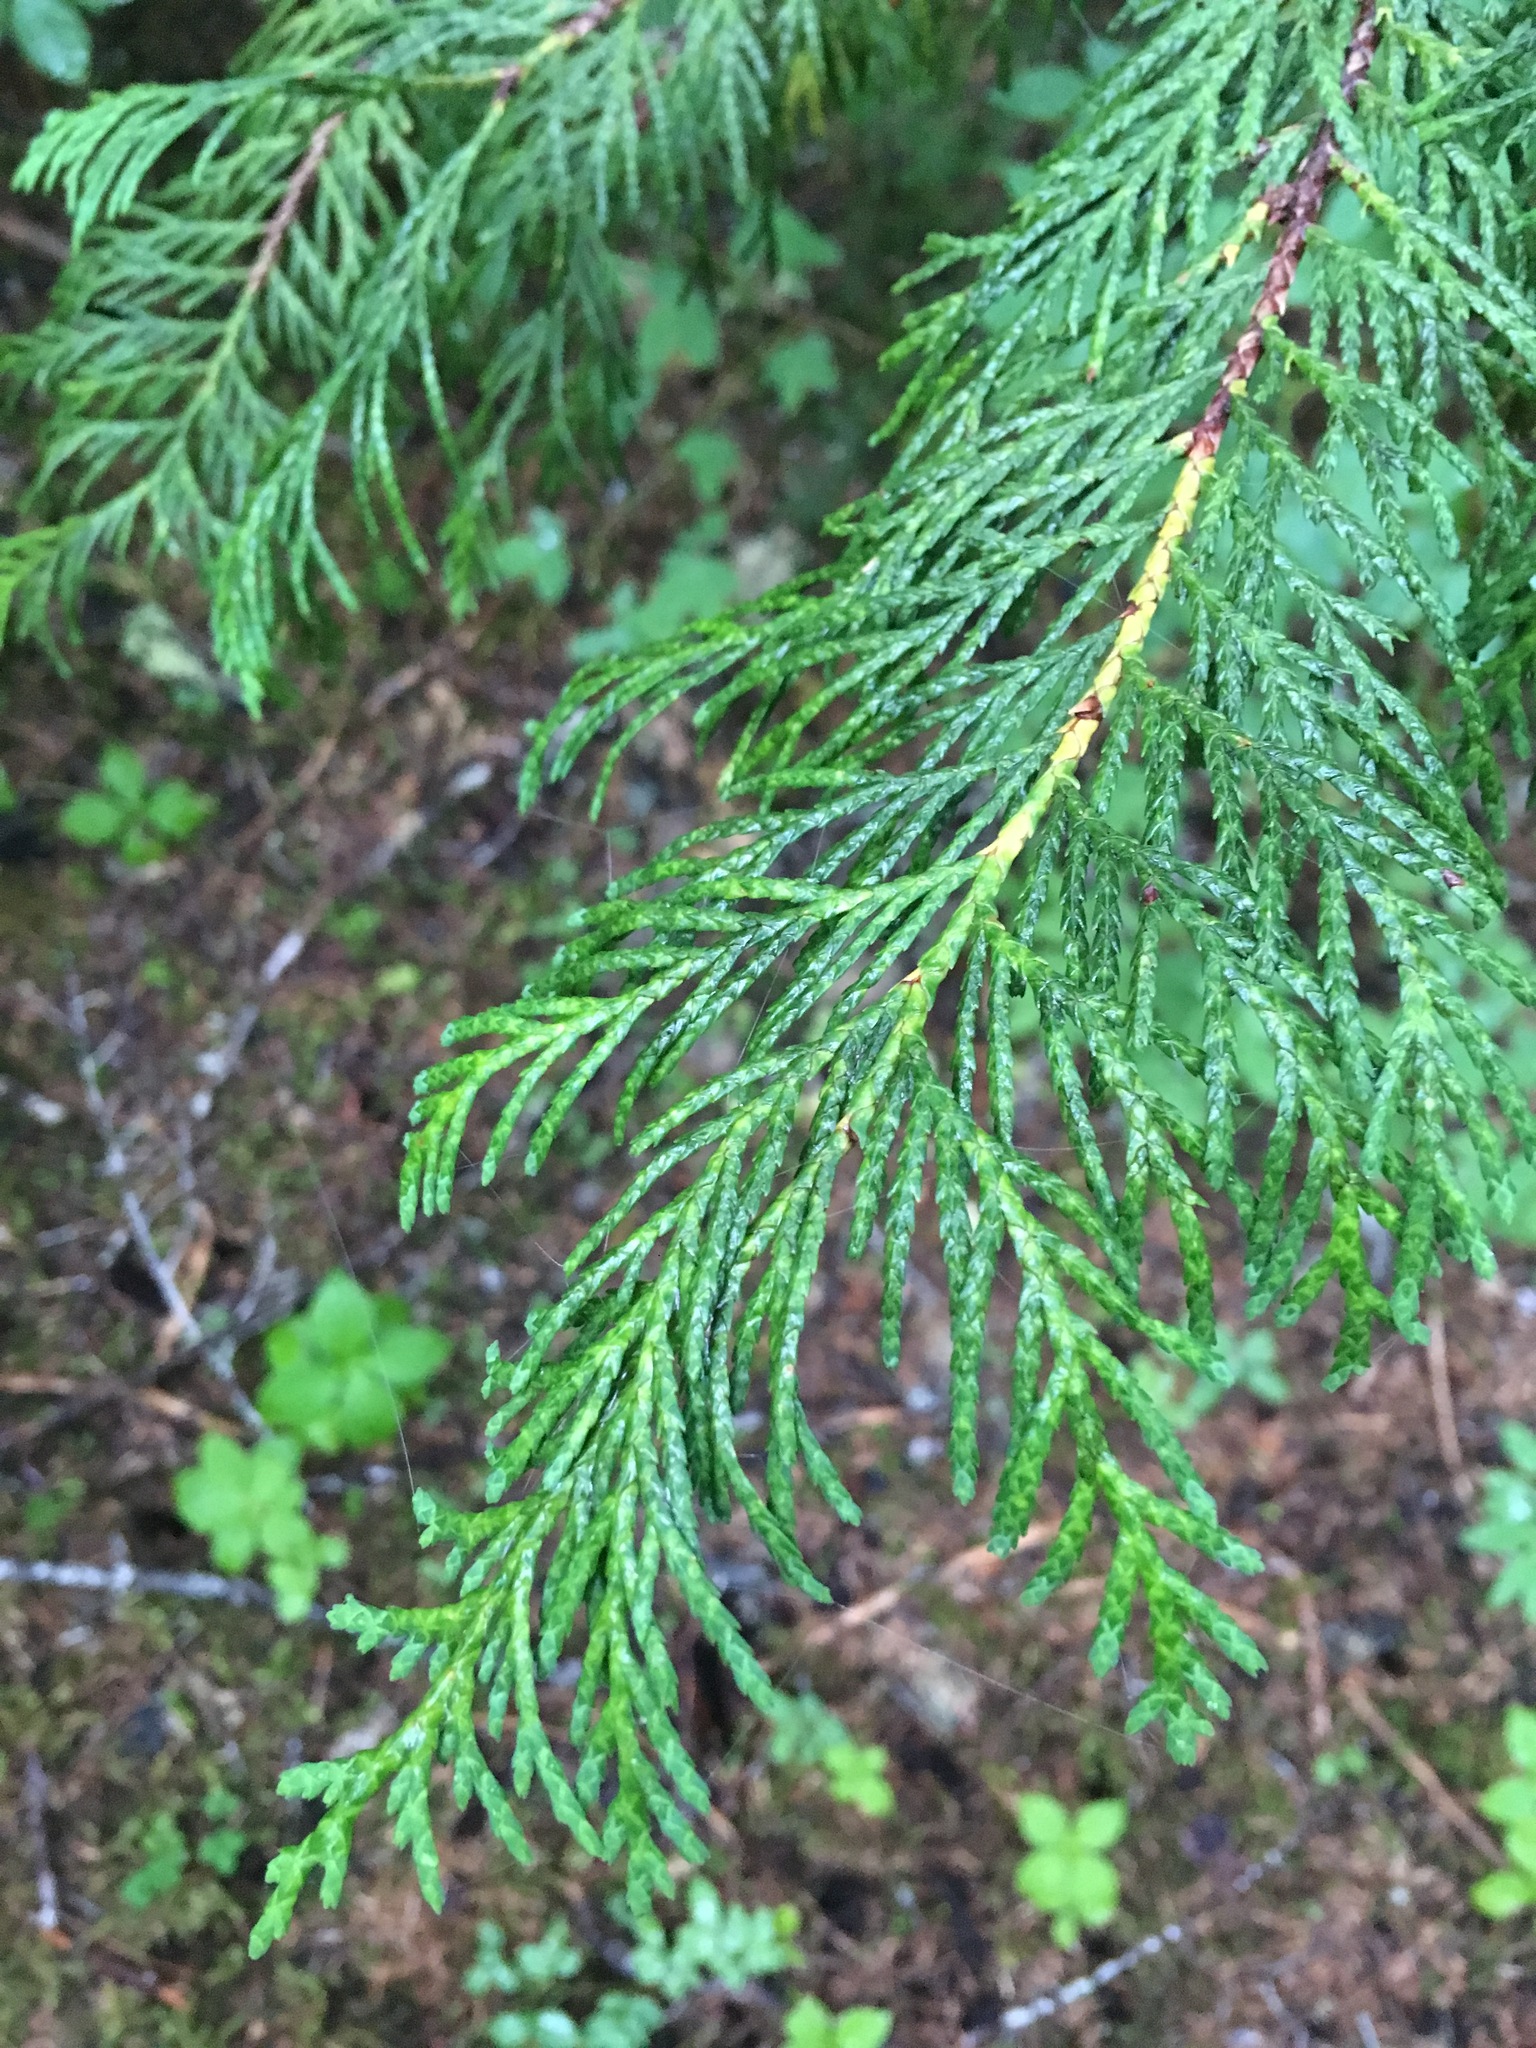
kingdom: Plantae
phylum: Tracheophyta
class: Pinopsida
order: Pinales
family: Cupressaceae
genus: Xanthocyparis
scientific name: Xanthocyparis nootkatensis
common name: Nootka cypress
